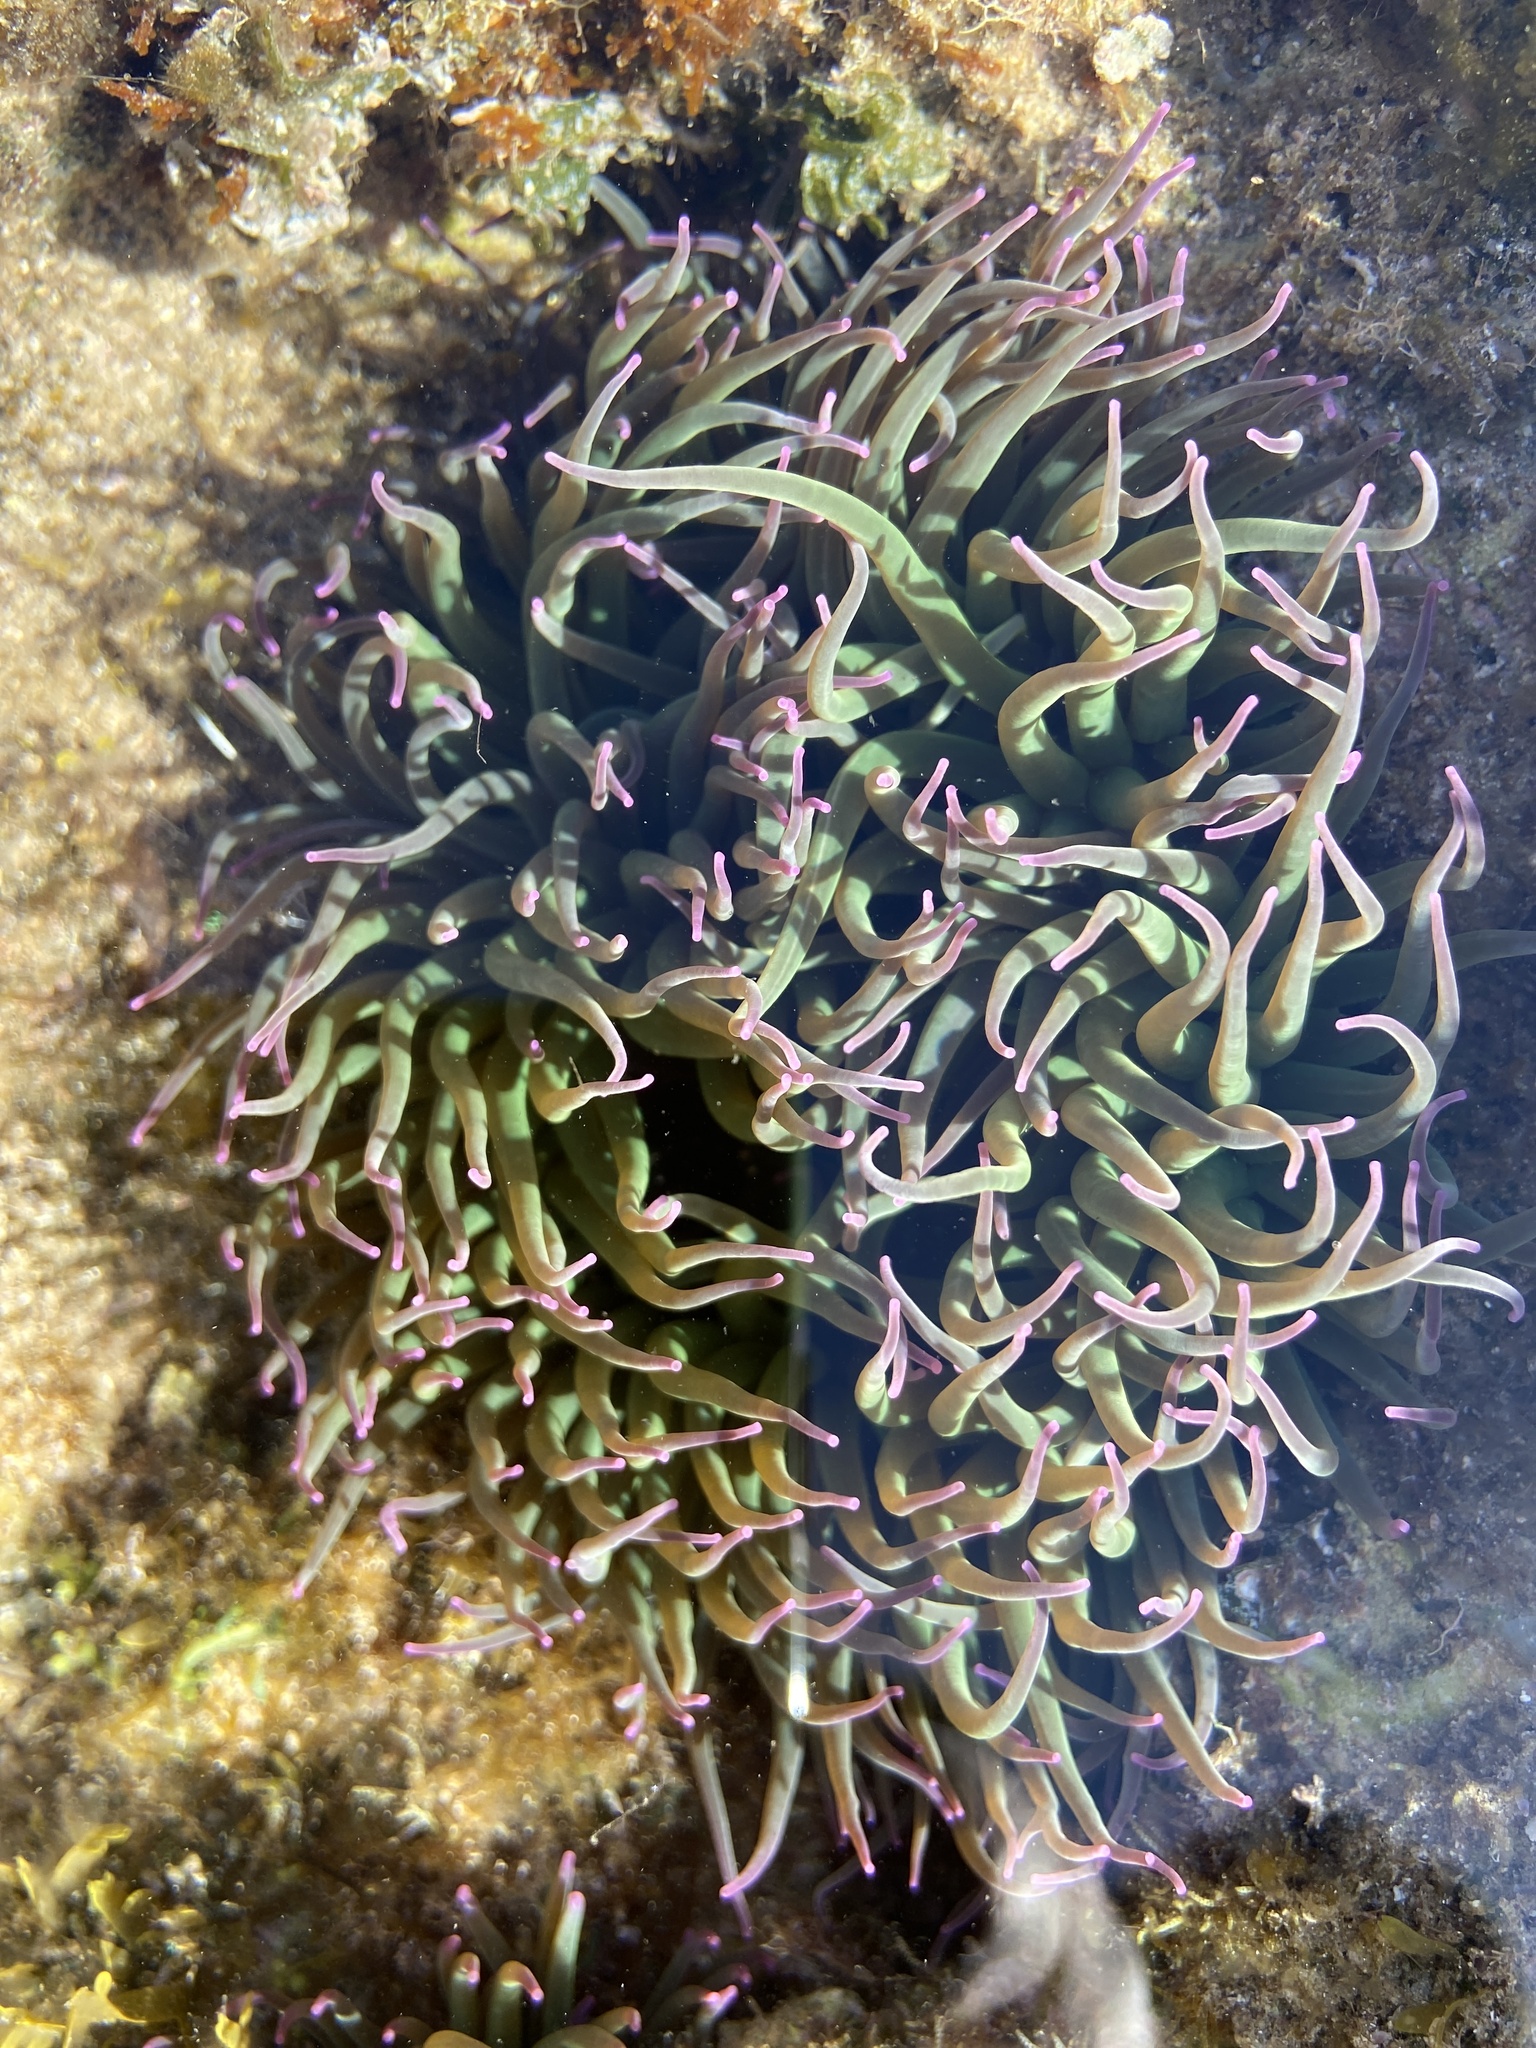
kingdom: Animalia
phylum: Cnidaria
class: Anthozoa
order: Actiniaria
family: Actiniidae
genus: Anemonia
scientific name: Anemonia viridis
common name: Snakelocks anemone
